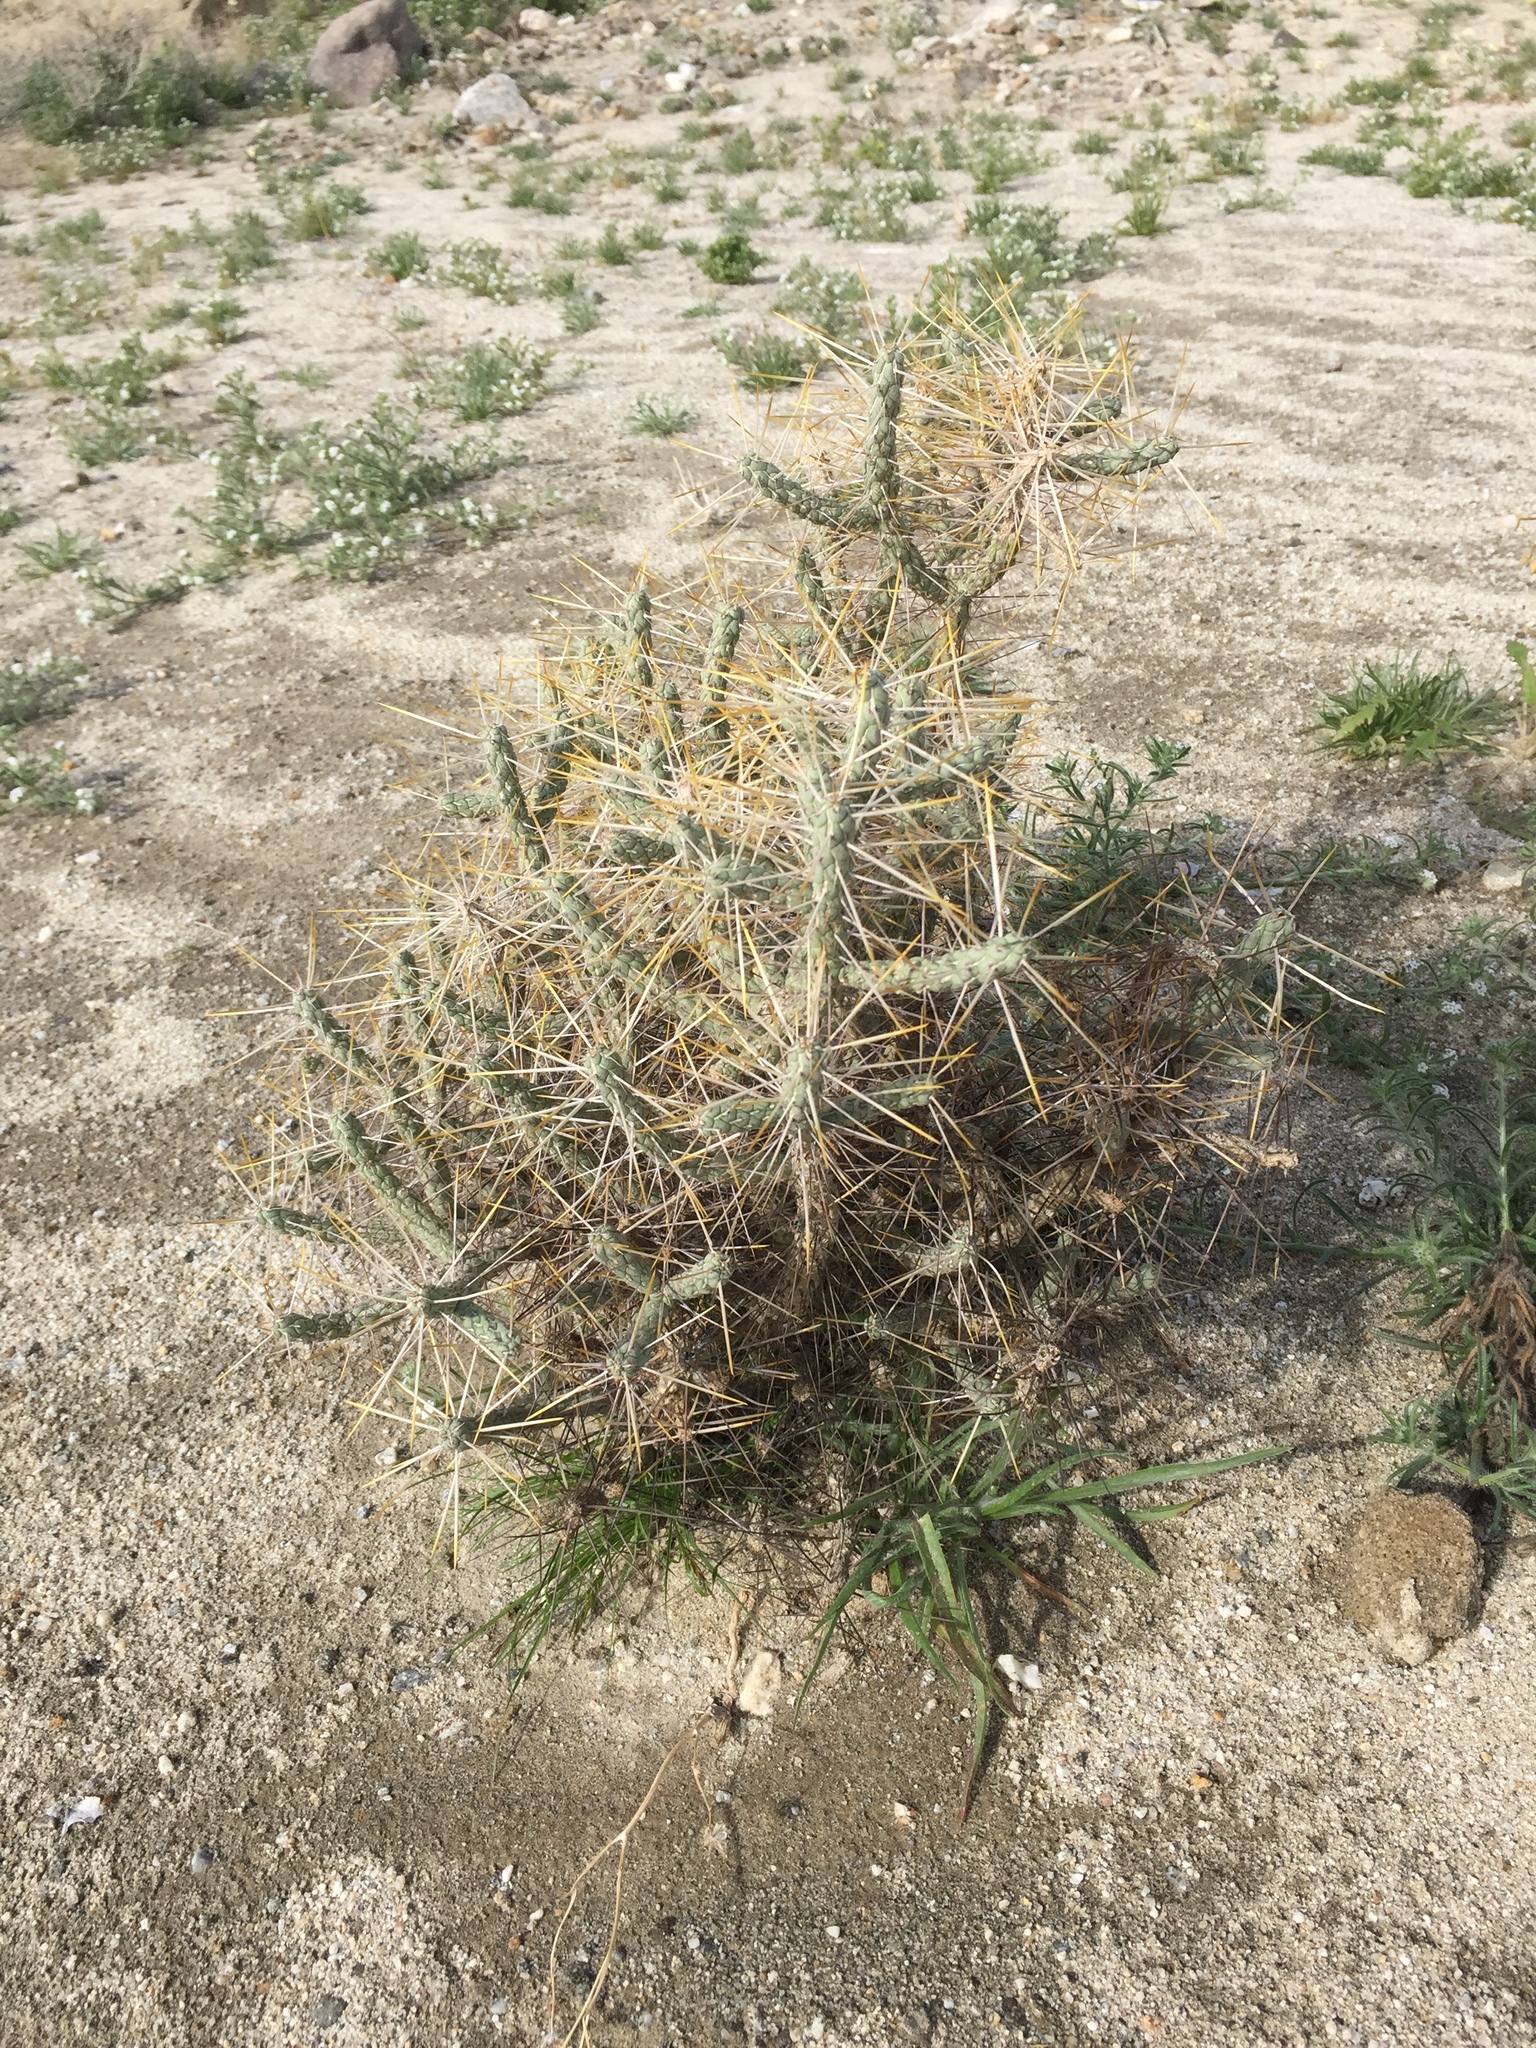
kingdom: Plantae
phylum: Tracheophyta
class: Magnoliopsida
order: Caryophyllales
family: Cactaceae
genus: Cylindropuntia
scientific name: Cylindropuntia ramosissima
